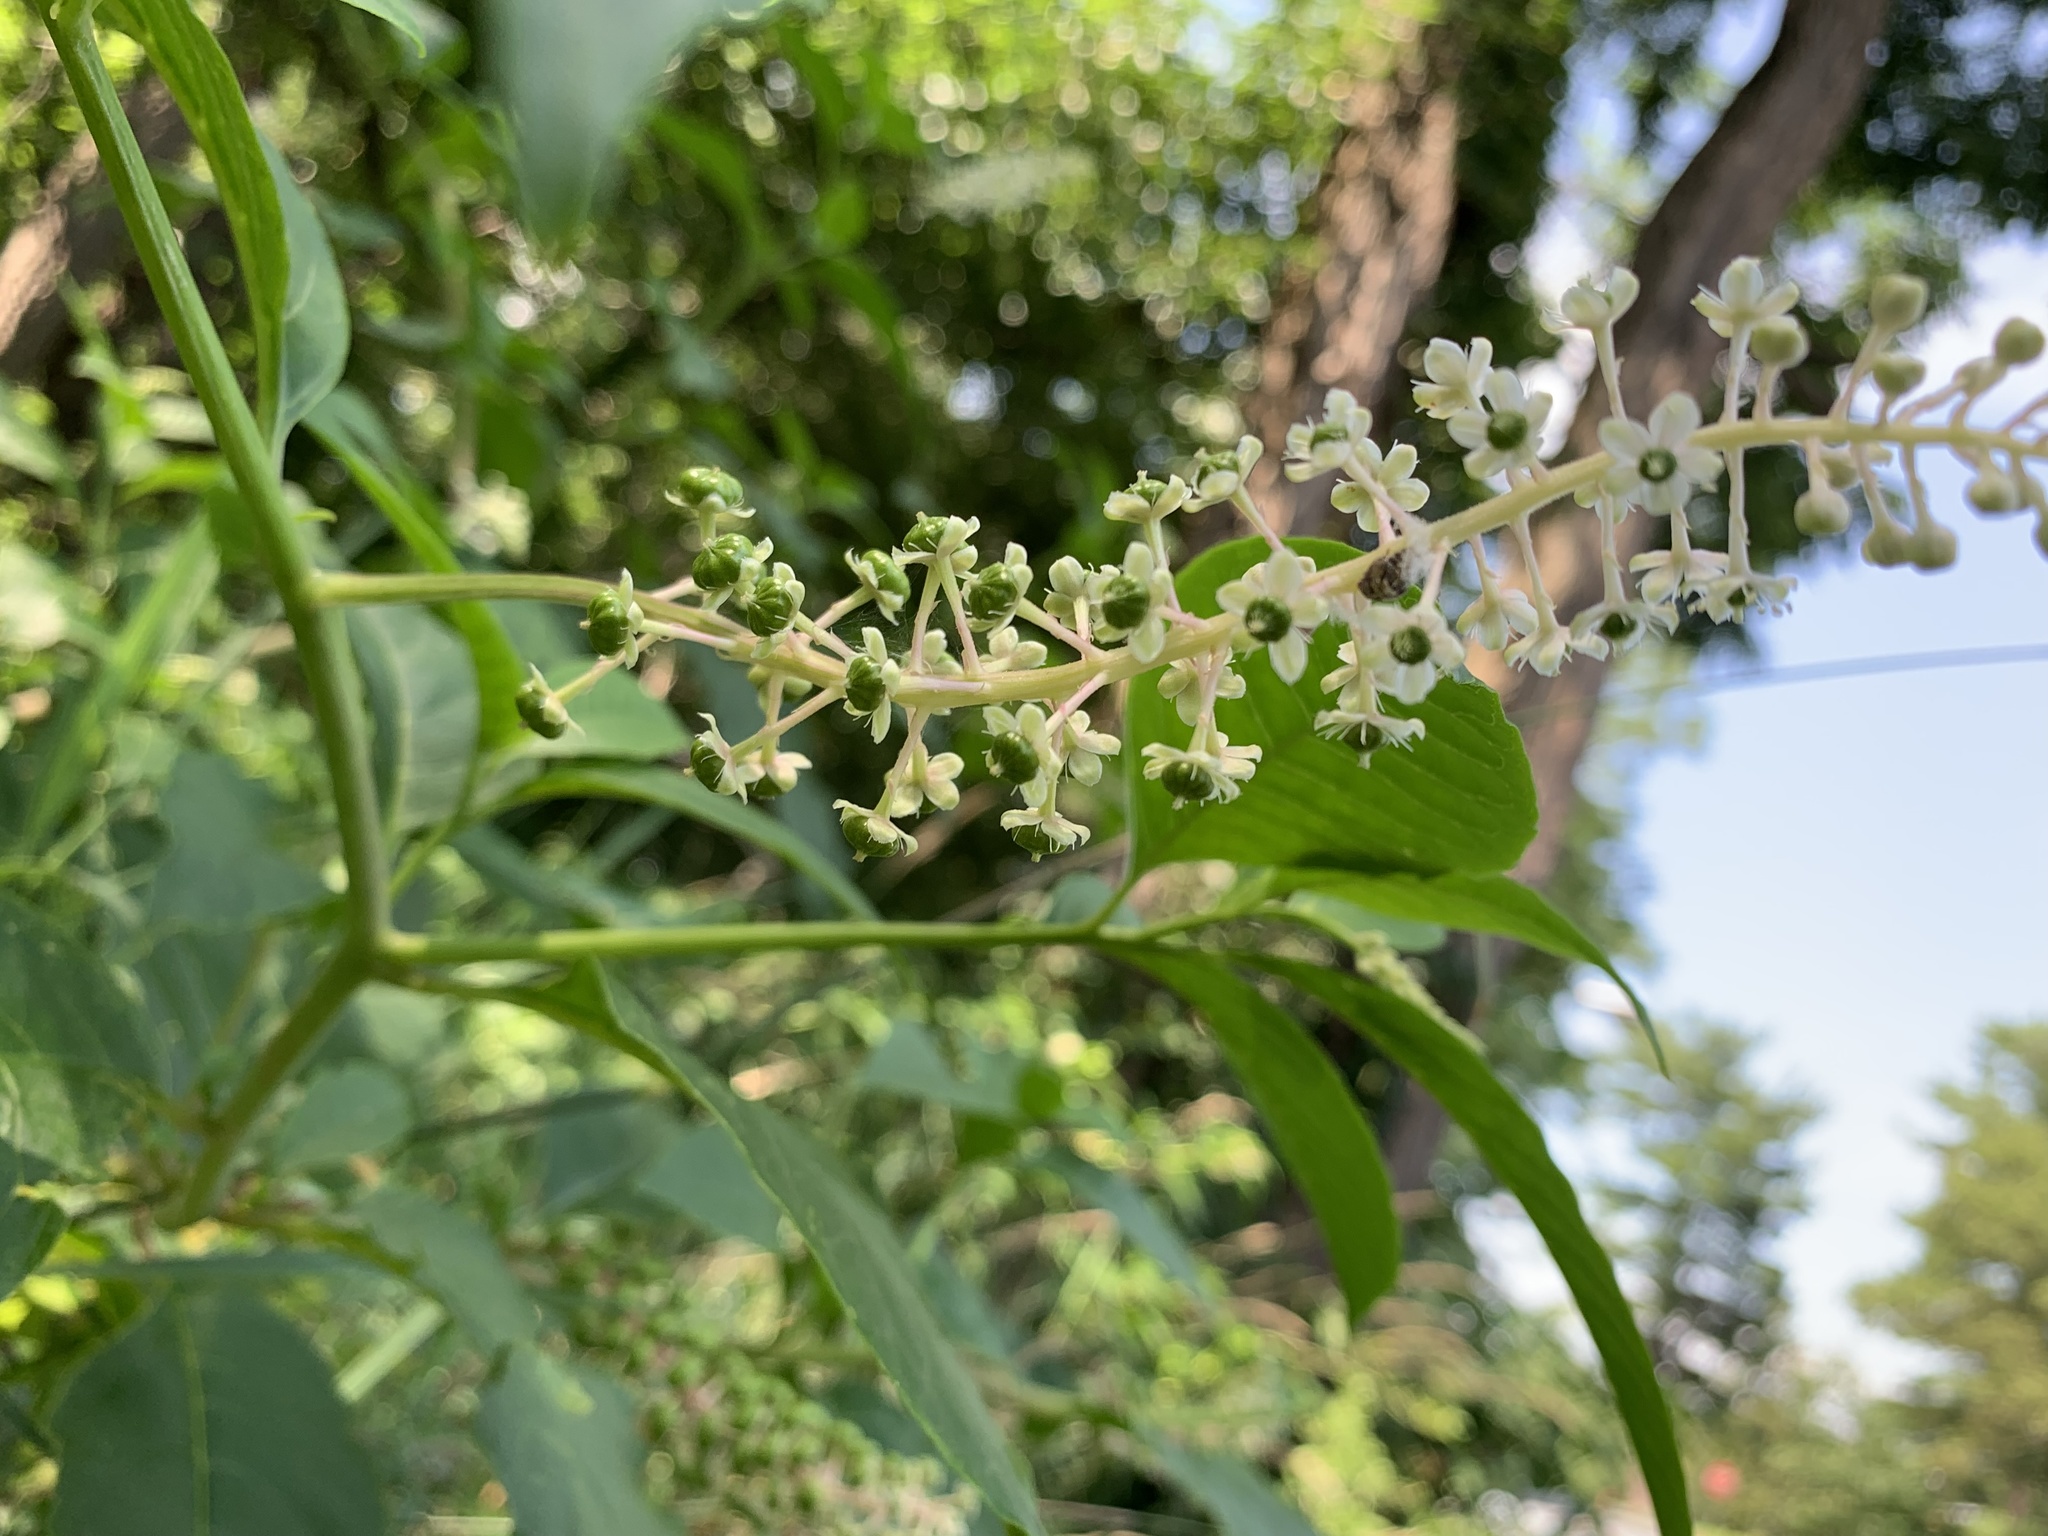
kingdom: Plantae
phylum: Tracheophyta
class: Magnoliopsida
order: Caryophyllales
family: Phytolaccaceae
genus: Phytolacca
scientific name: Phytolacca americana
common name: American pokeweed
